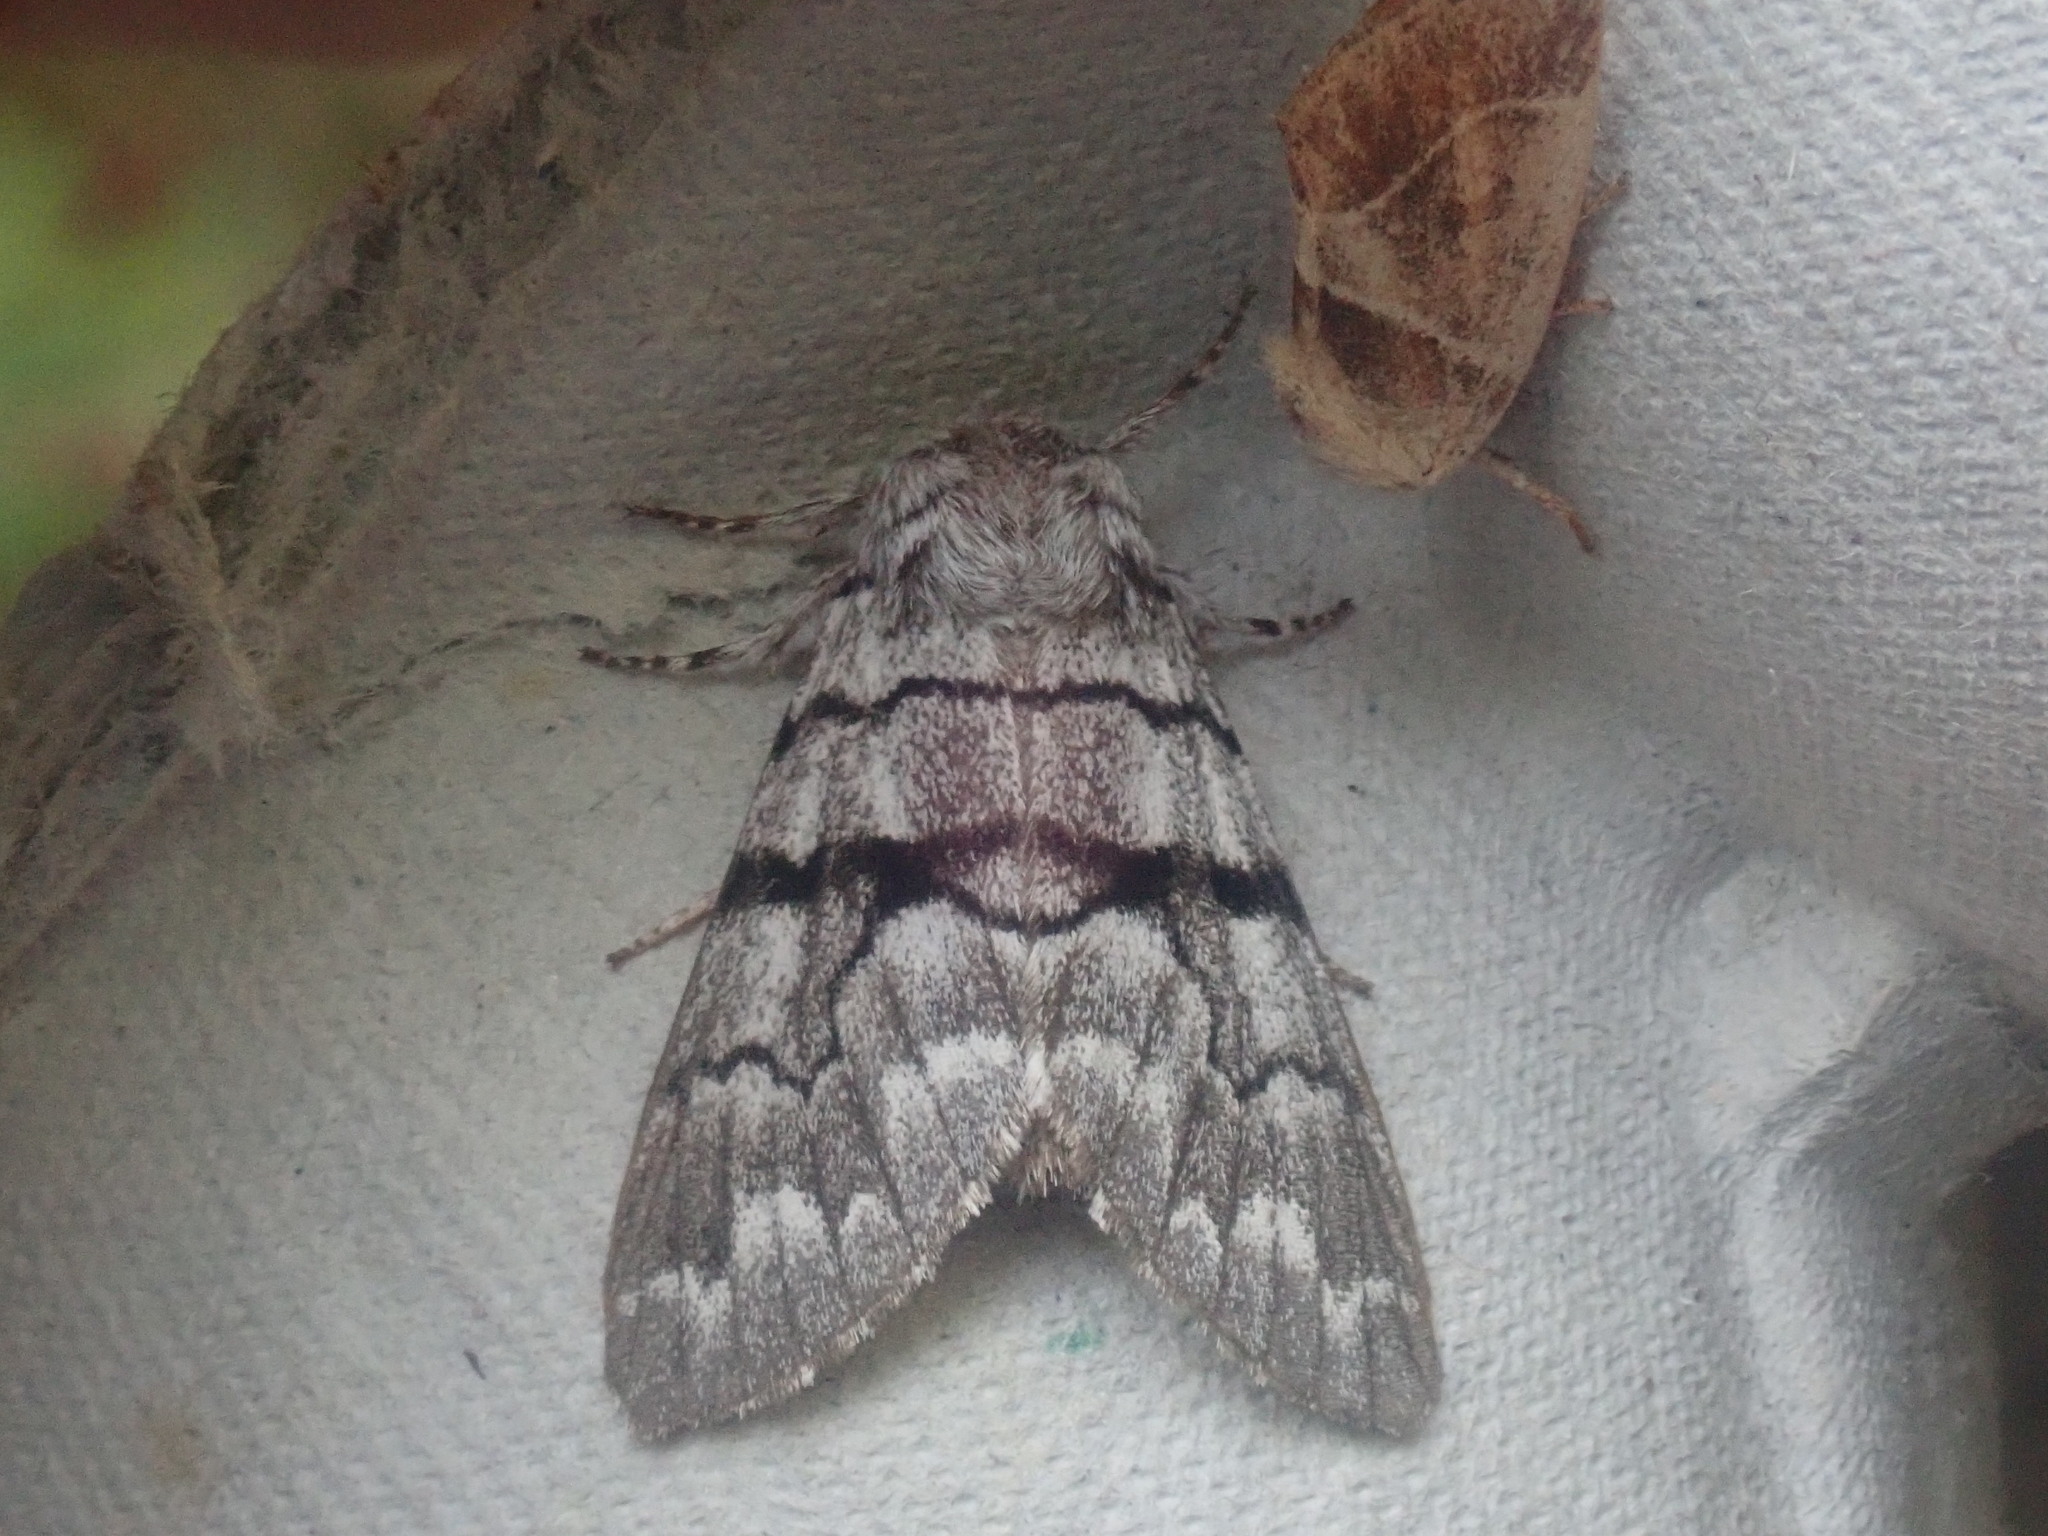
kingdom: Animalia
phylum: Arthropoda
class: Insecta
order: Lepidoptera
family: Noctuidae
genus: Panthea
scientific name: Panthea furcilla
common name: Eastern panthea moth
